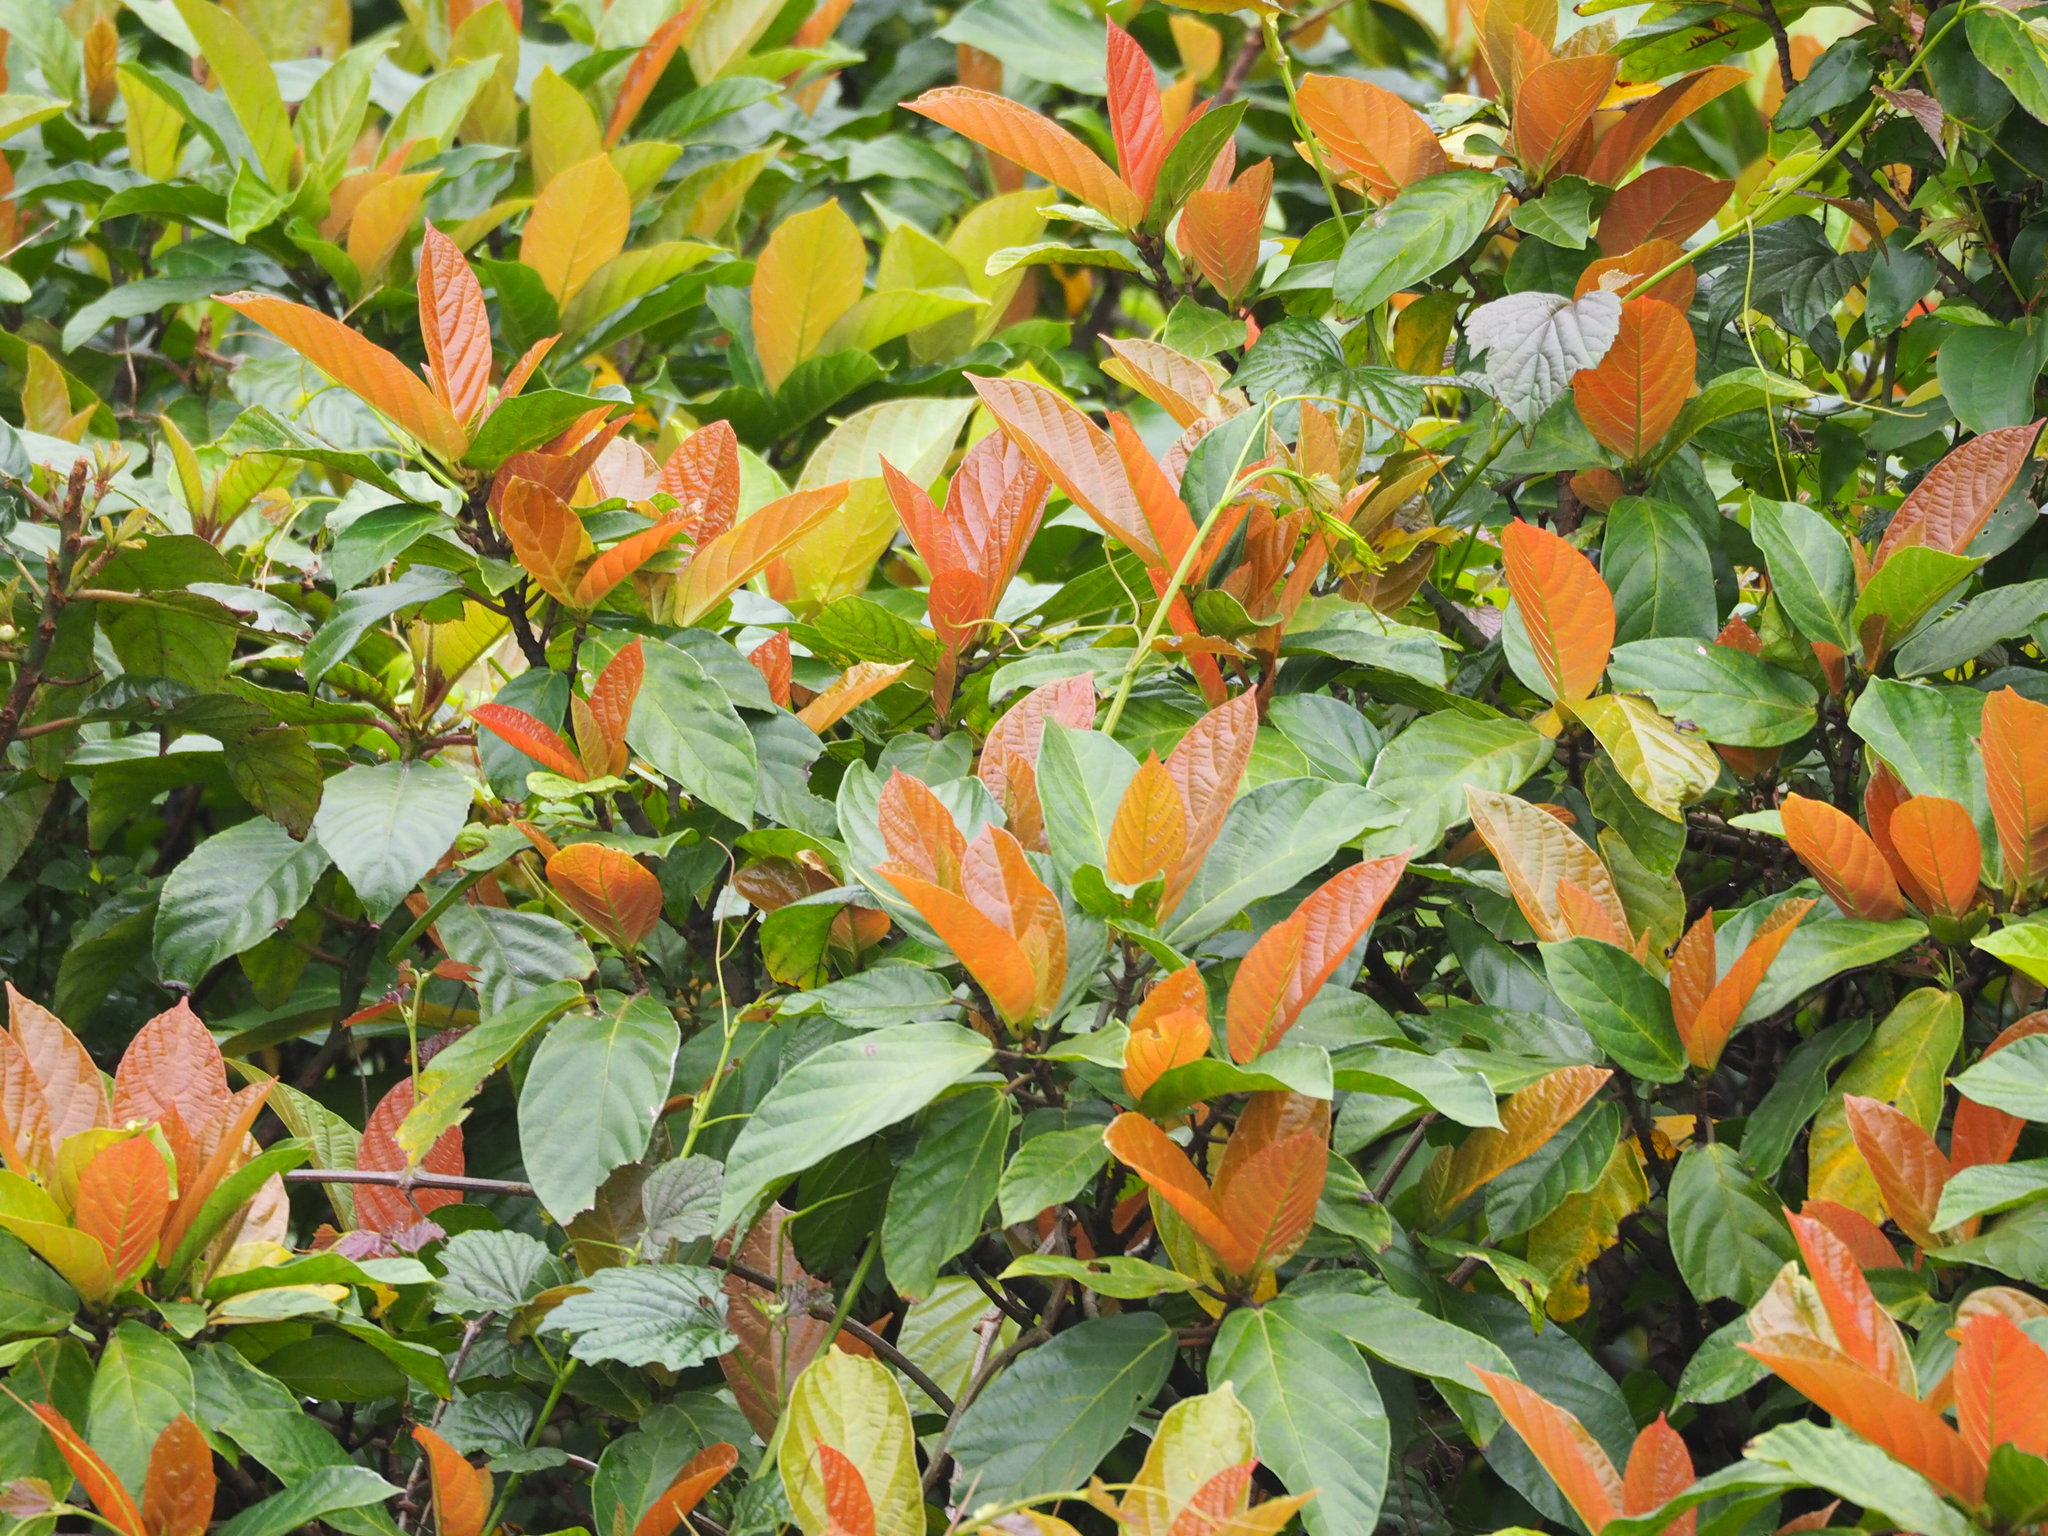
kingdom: Plantae
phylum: Tracheophyta
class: Magnoliopsida
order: Rosales
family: Moraceae
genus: Ficus
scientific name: Ficus benguetensis
